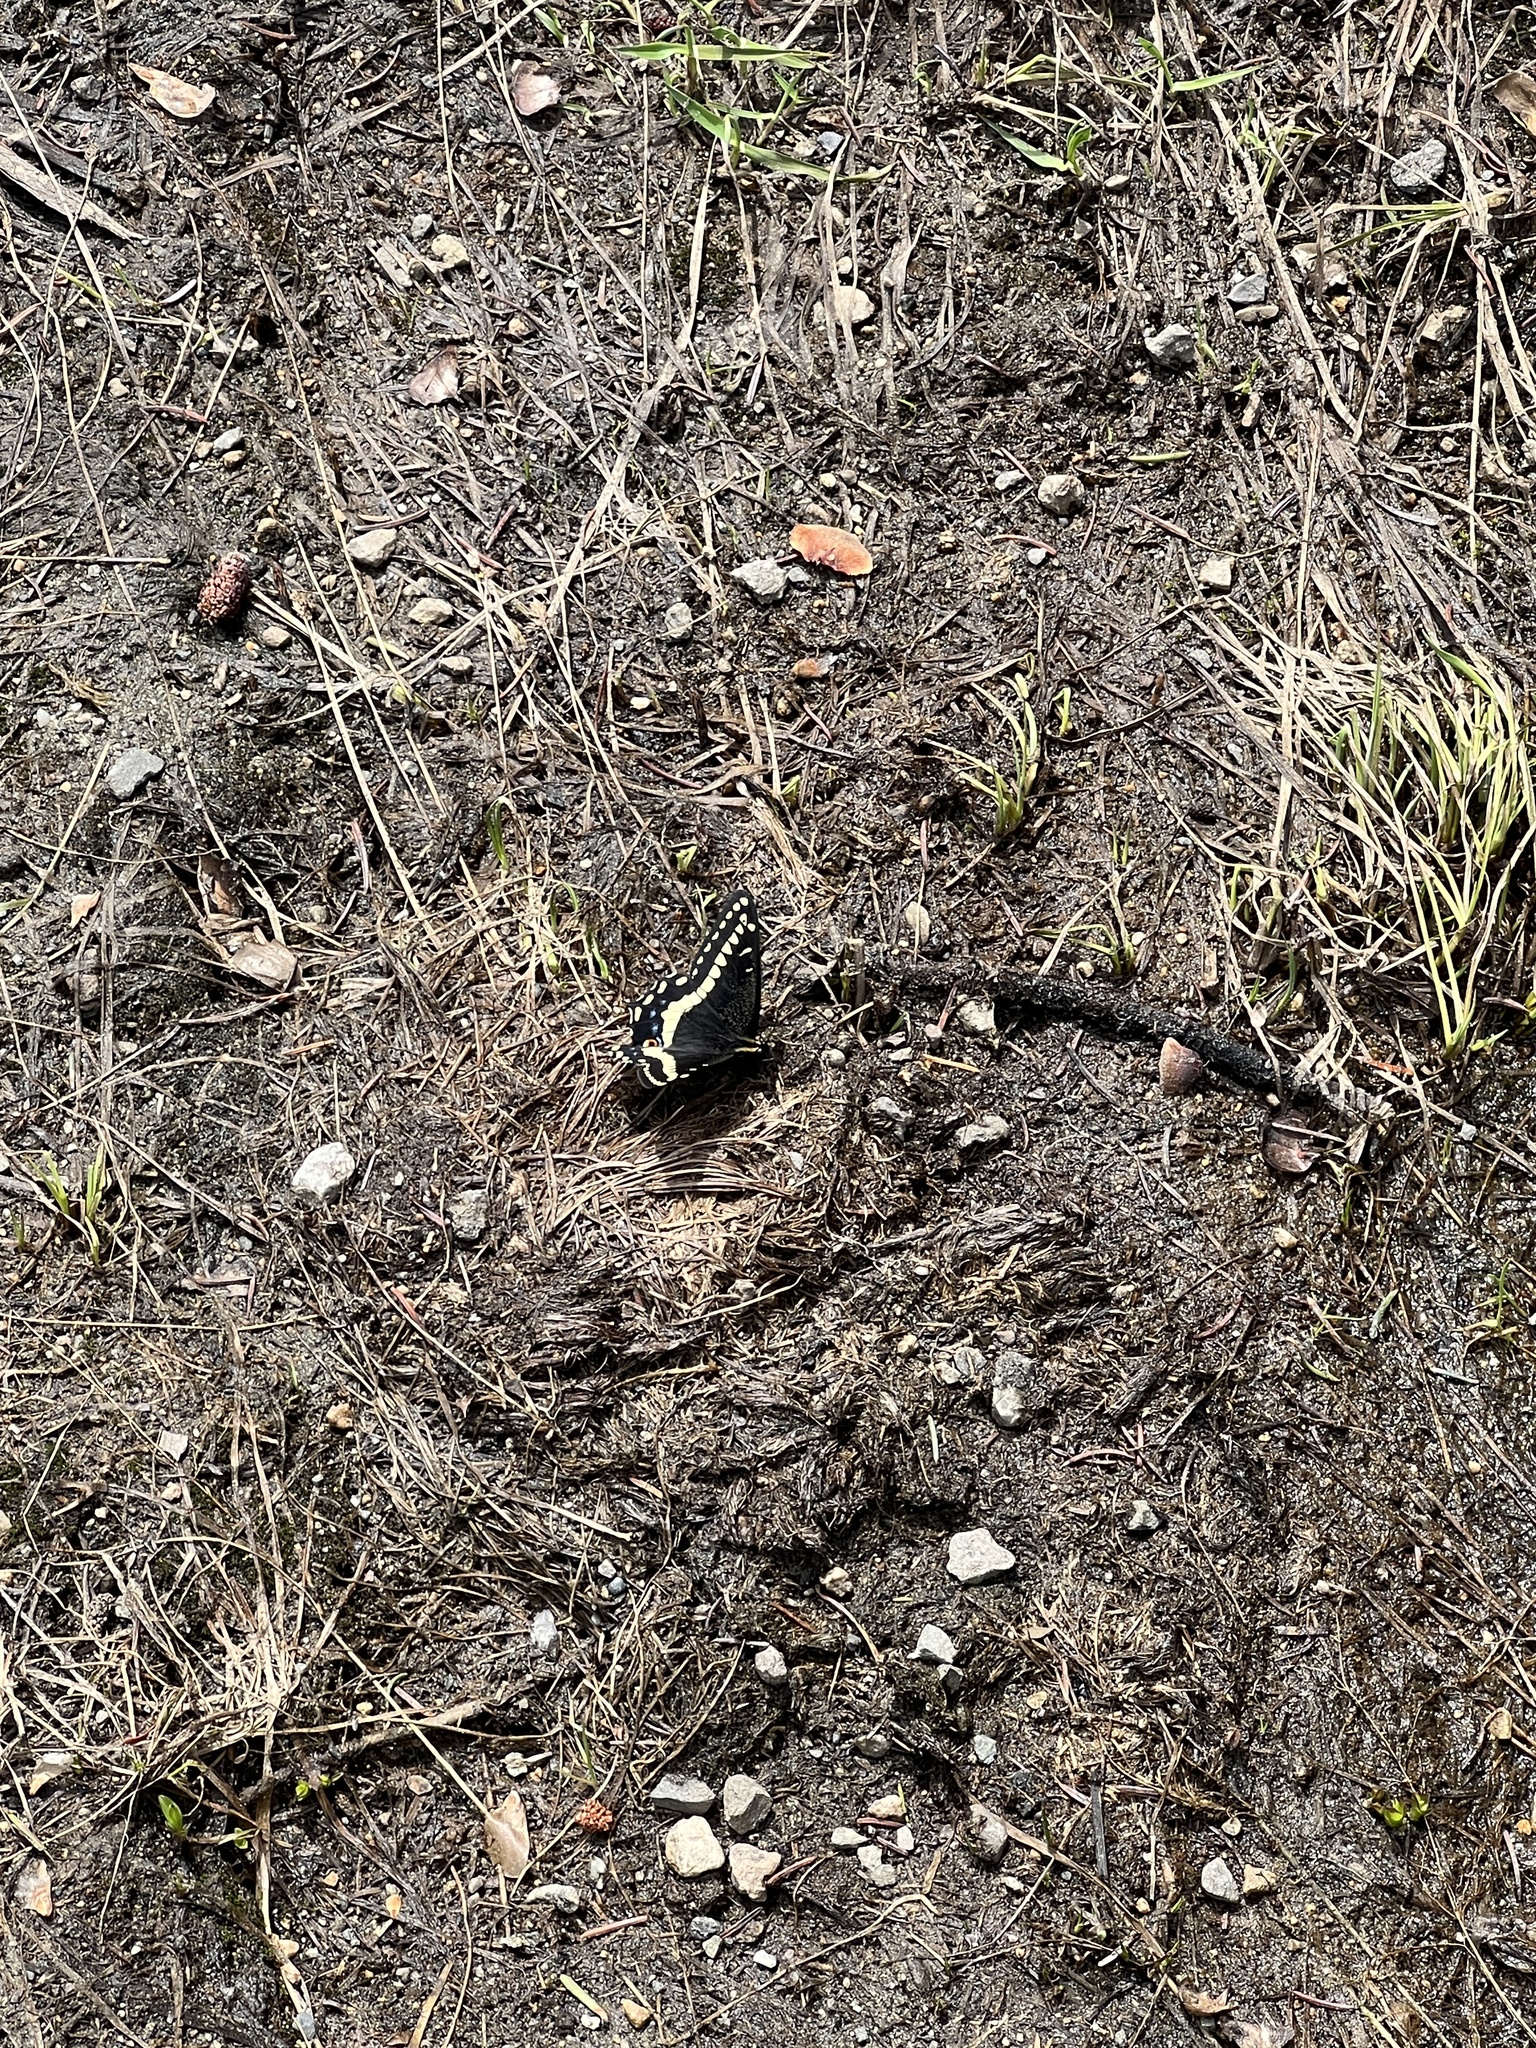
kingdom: Animalia
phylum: Arthropoda
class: Insecta
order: Lepidoptera
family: Papilionidae
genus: Papilio
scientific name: Papilio indra
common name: Cliff swallowtail
